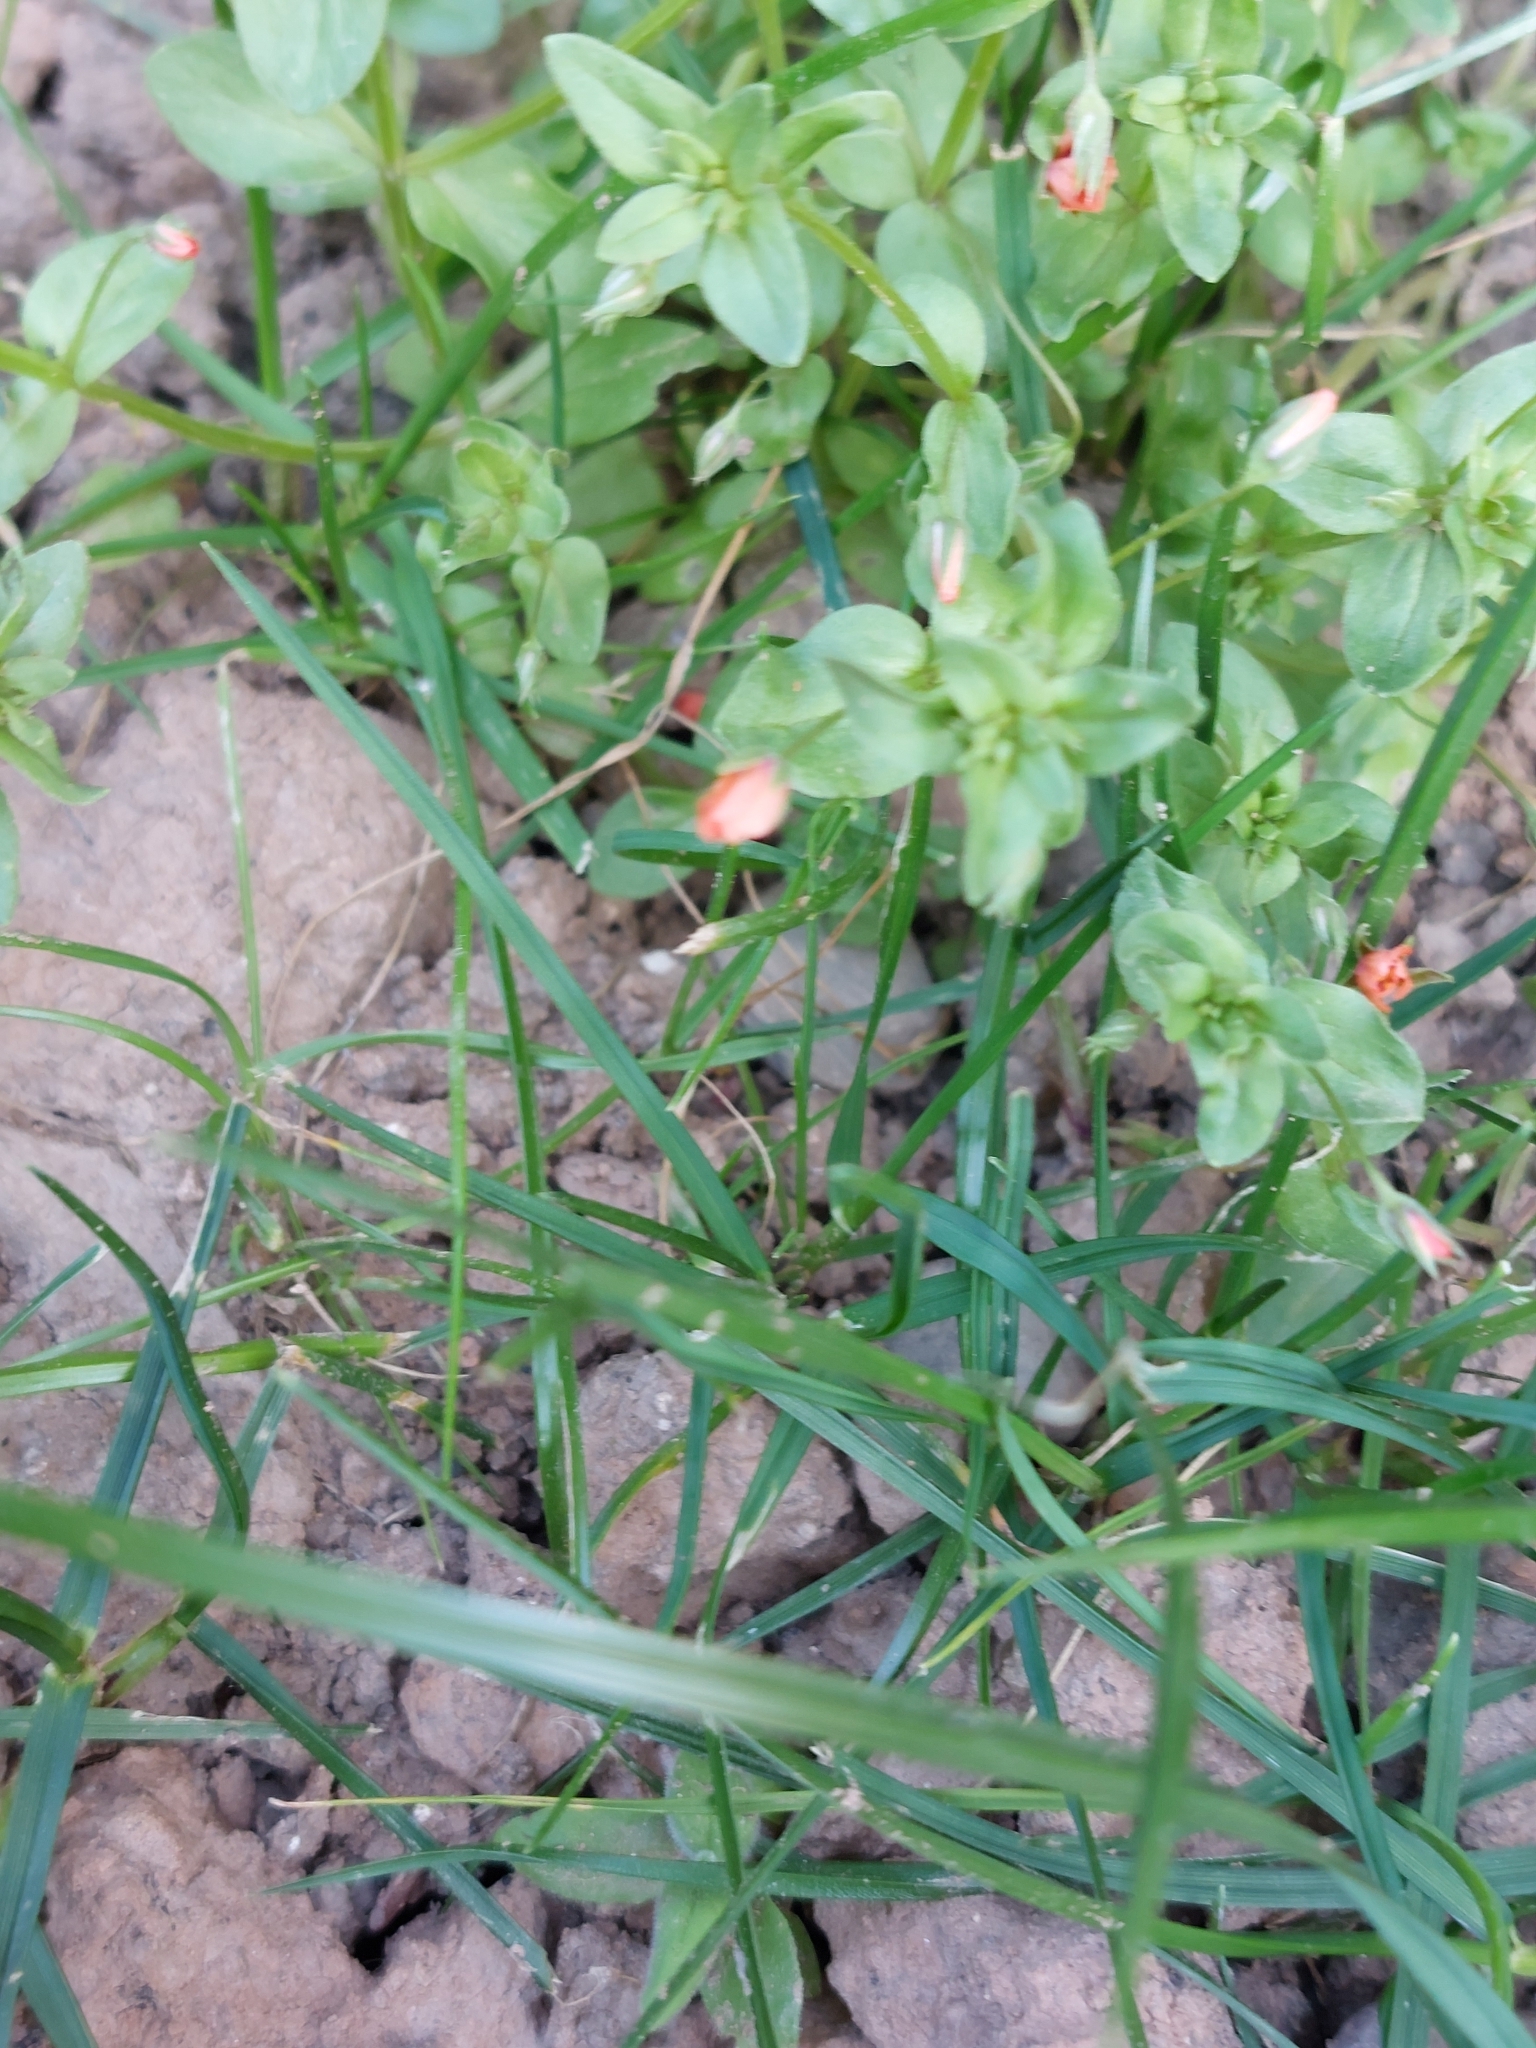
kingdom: Plantae
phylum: Tracheophyta
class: Magnoliopsida
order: Ericales
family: Primulaceae
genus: Lysimachia
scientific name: Lysimachia arvensis
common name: Scarlet pimpernel
